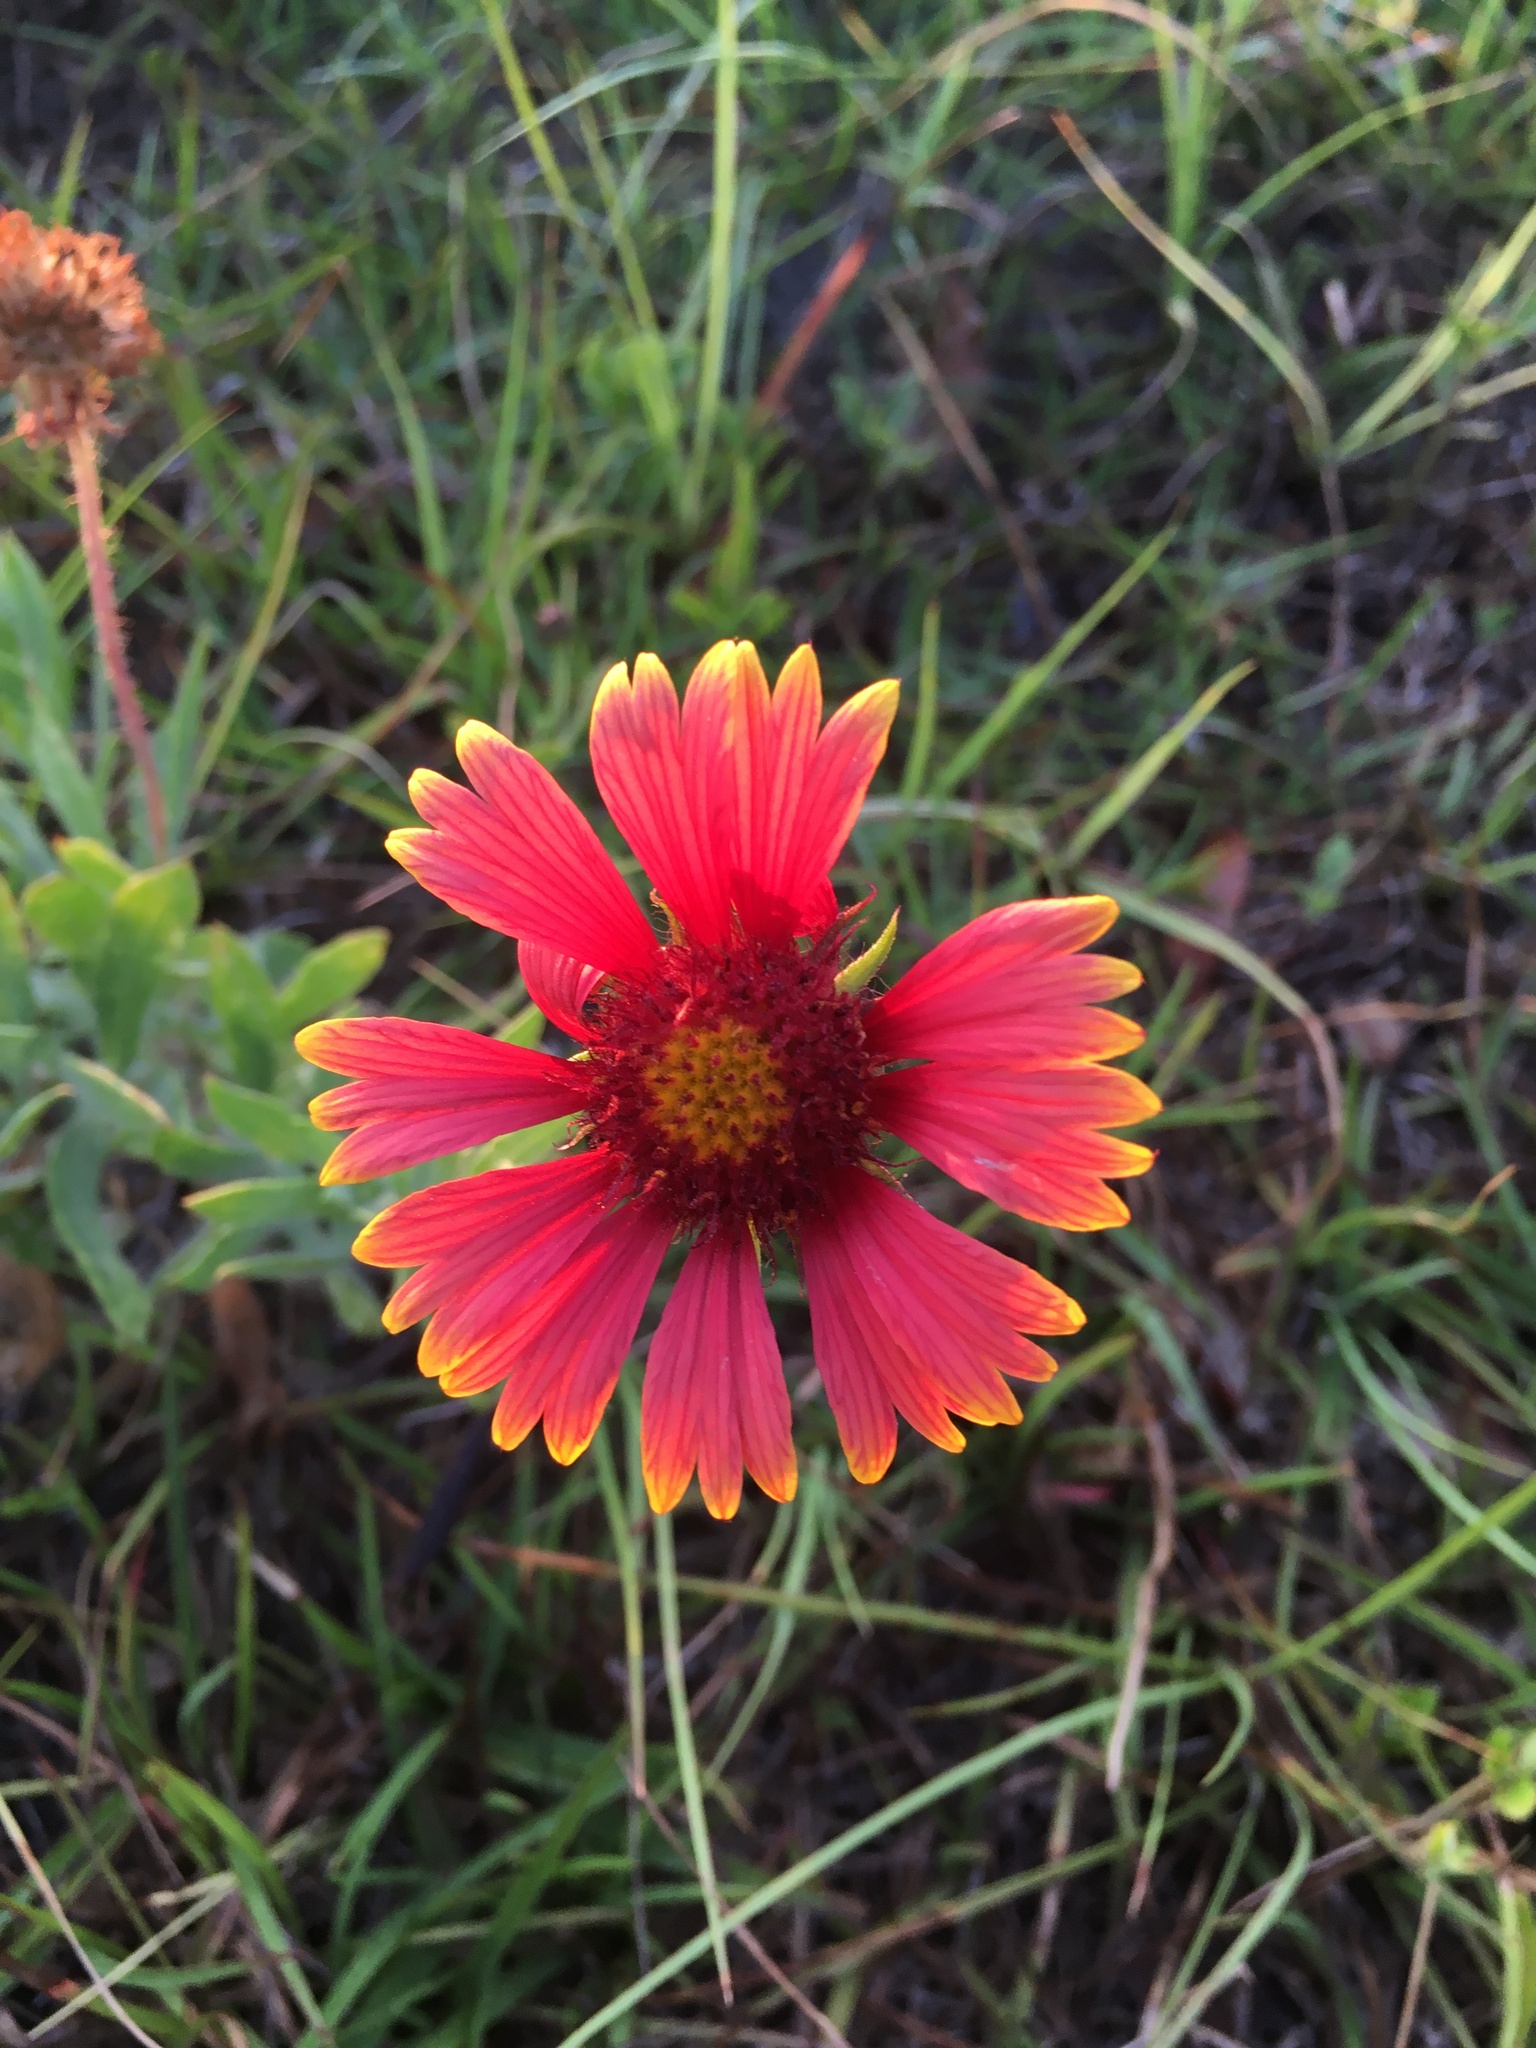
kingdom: Plantae
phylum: Tracheophyta
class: Magnoliopsida
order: Asterales
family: Asteraceae
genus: Gaillardia
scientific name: Gaillardia pulchella
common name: Firewheel
